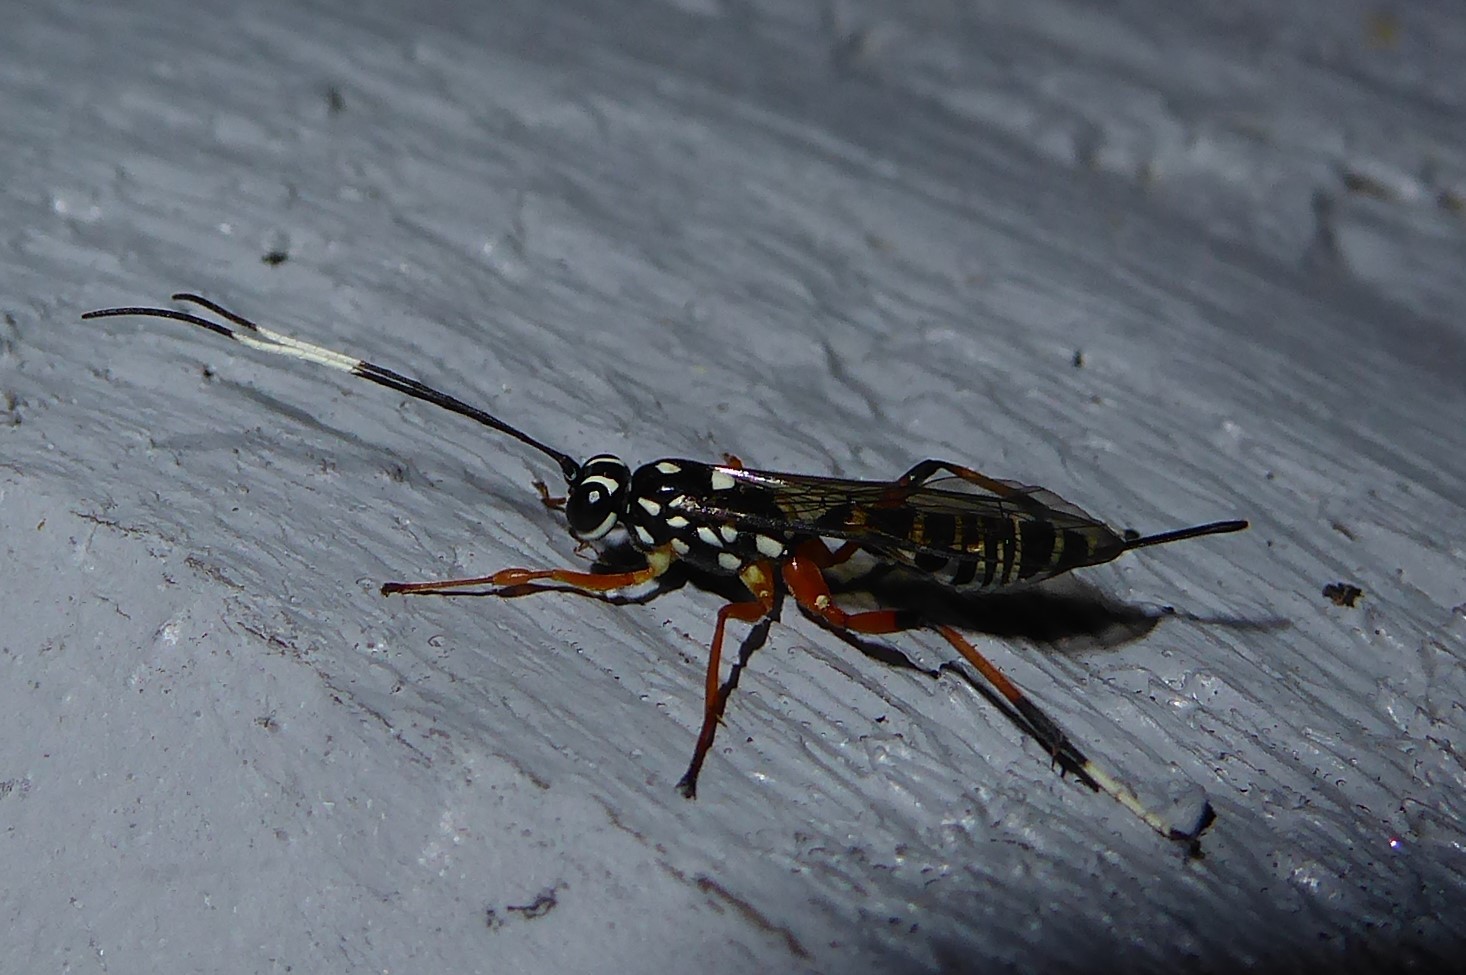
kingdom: Animalia
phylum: Arthropoda
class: Insecta
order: Hymenoptera
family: Ichneumonidae
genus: Xanthocryptus
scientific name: Xanthocryptus novozealandicus
